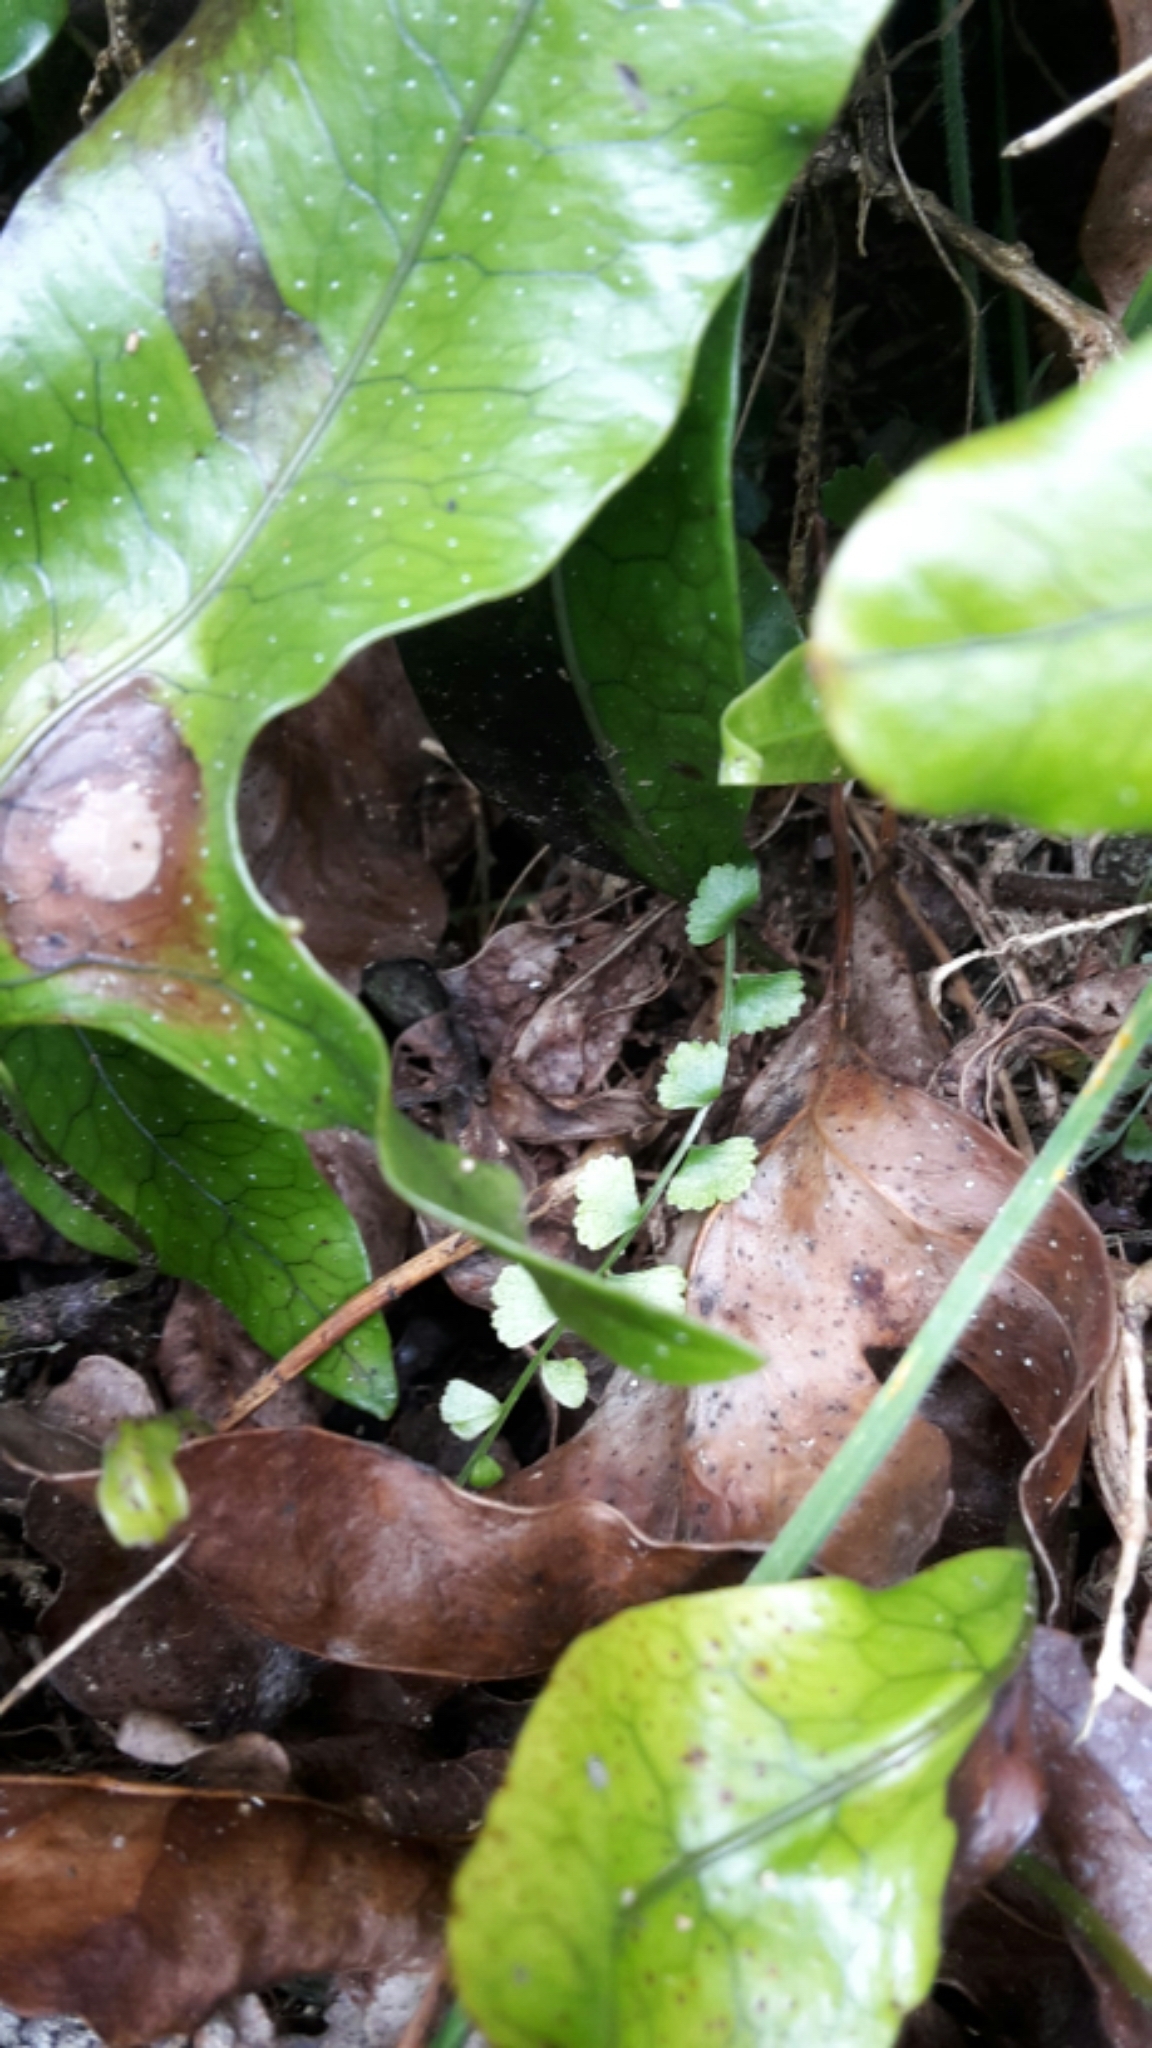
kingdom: Plantae
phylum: Tracheophyta
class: Polypodiopsida
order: Polypodiales
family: Aspleniaceae
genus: Asplenium
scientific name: Asplenium flabellifolium
